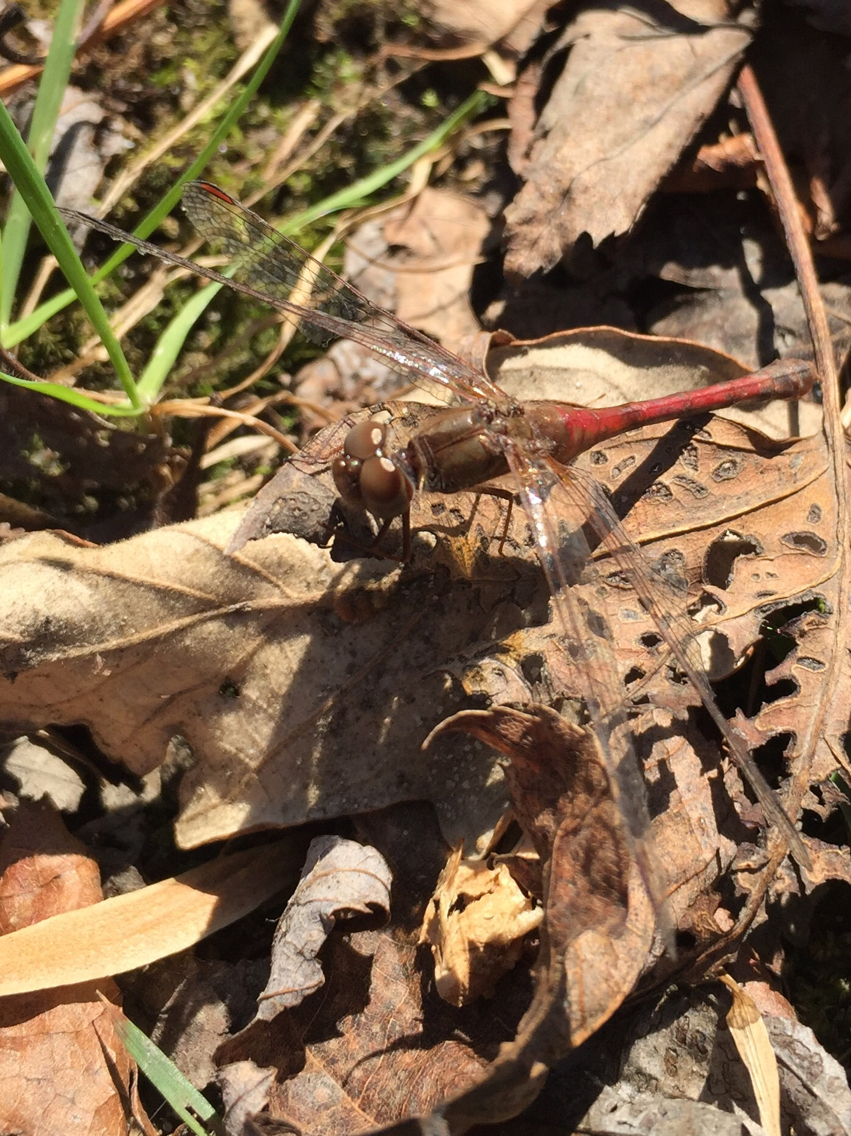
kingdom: Animalia
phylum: Arthropoda
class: Insecta
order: Odonata
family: Libellulidae
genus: Sympetrum
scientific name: Sympetrum vicinum
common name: Autumn meadowhawk
